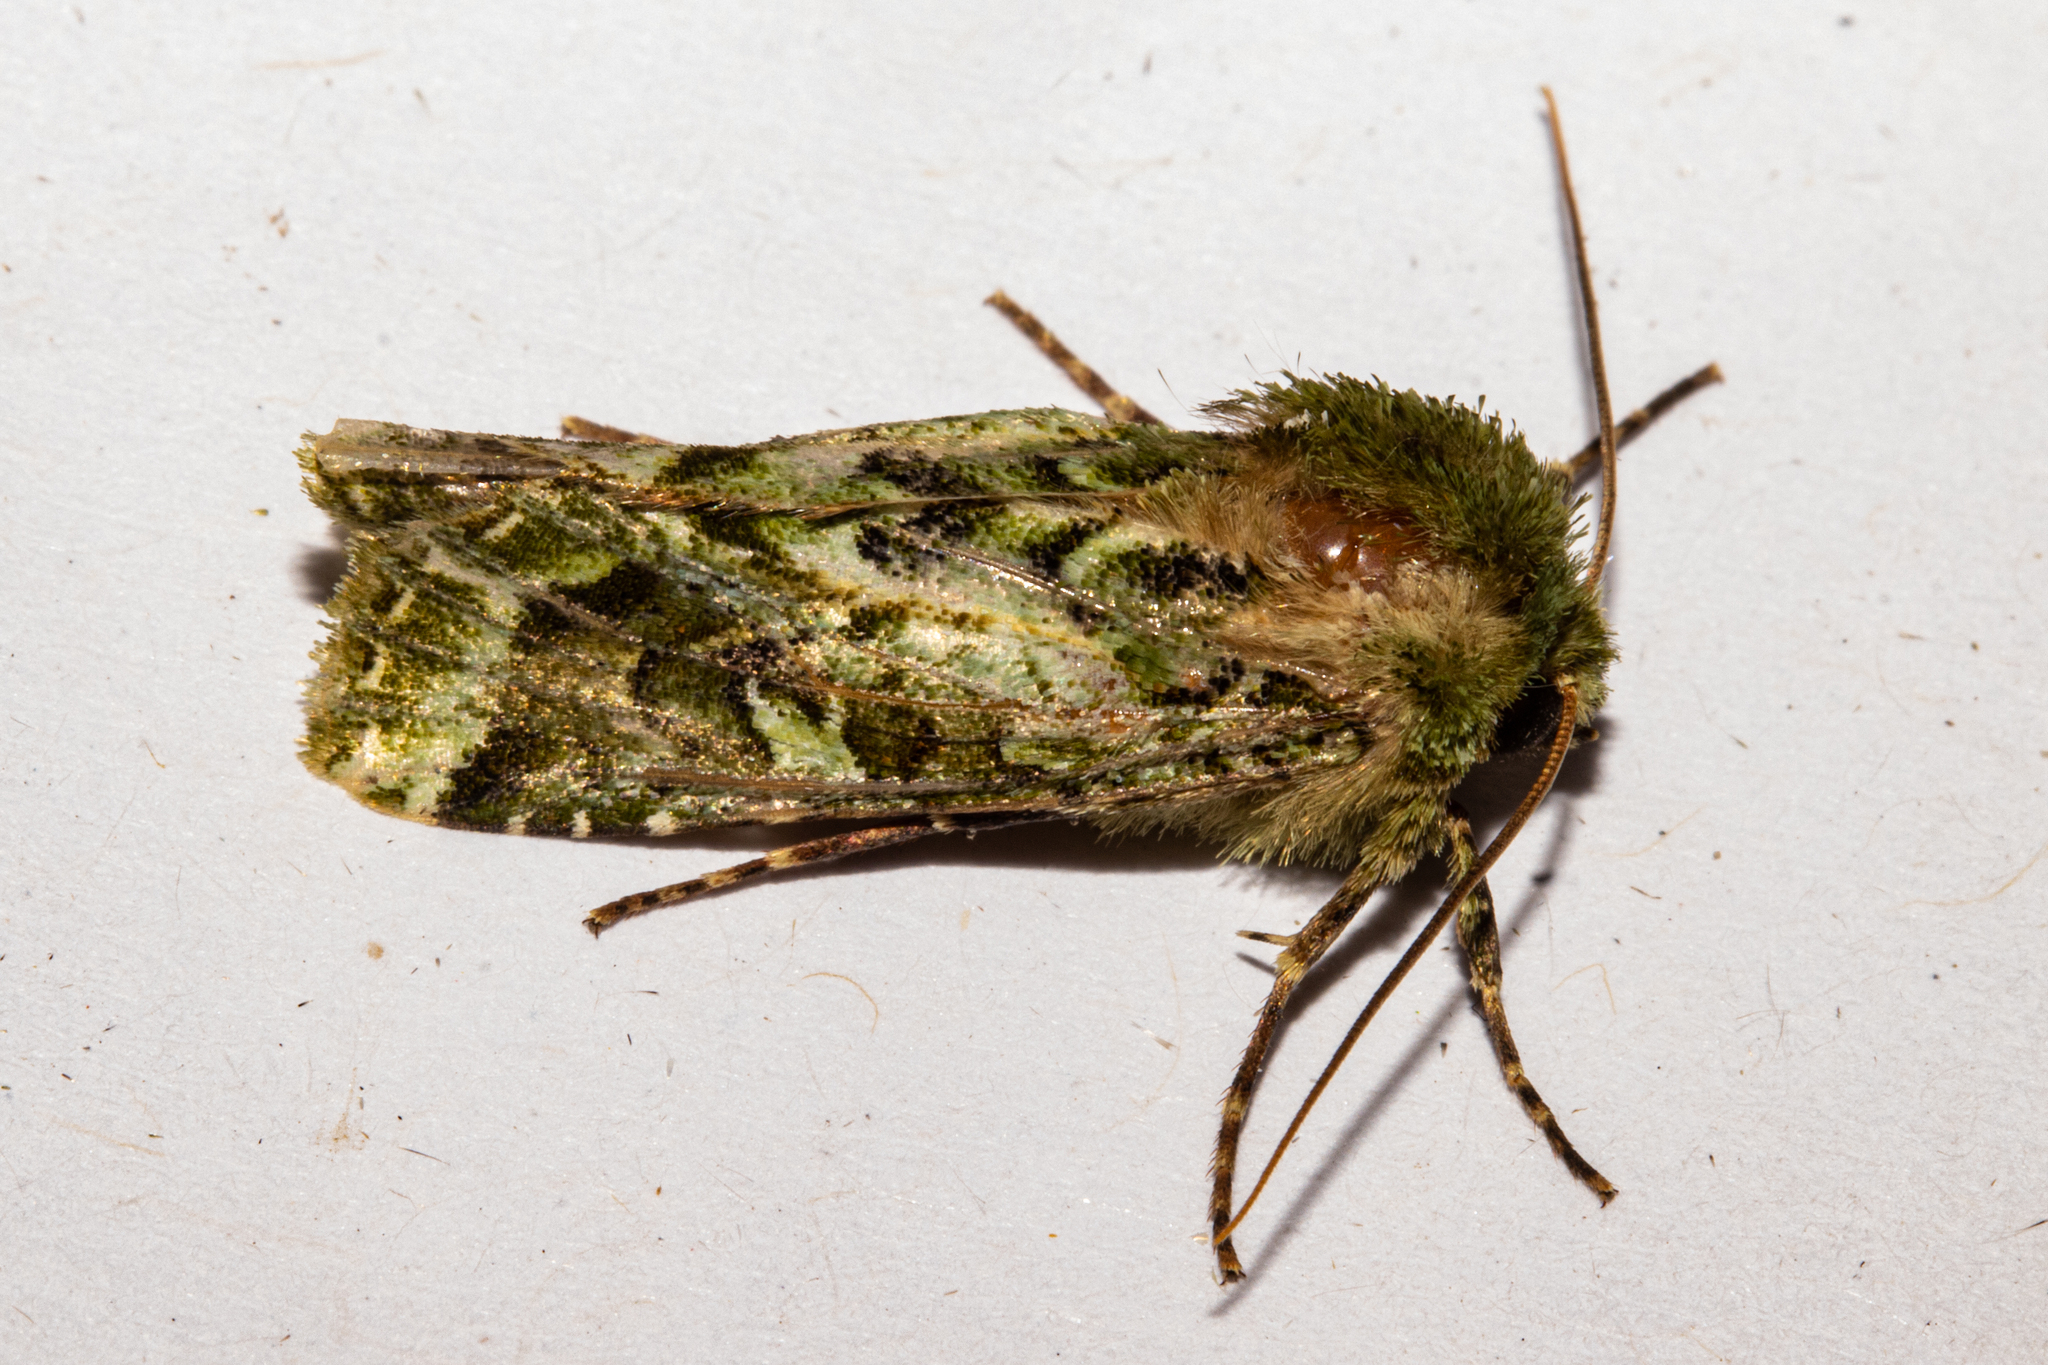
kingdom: Animalia
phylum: Arthropoda
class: Insecta
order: Lepidoptera
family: Noctuidae
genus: Feredayia
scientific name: Feredayia grammosa
